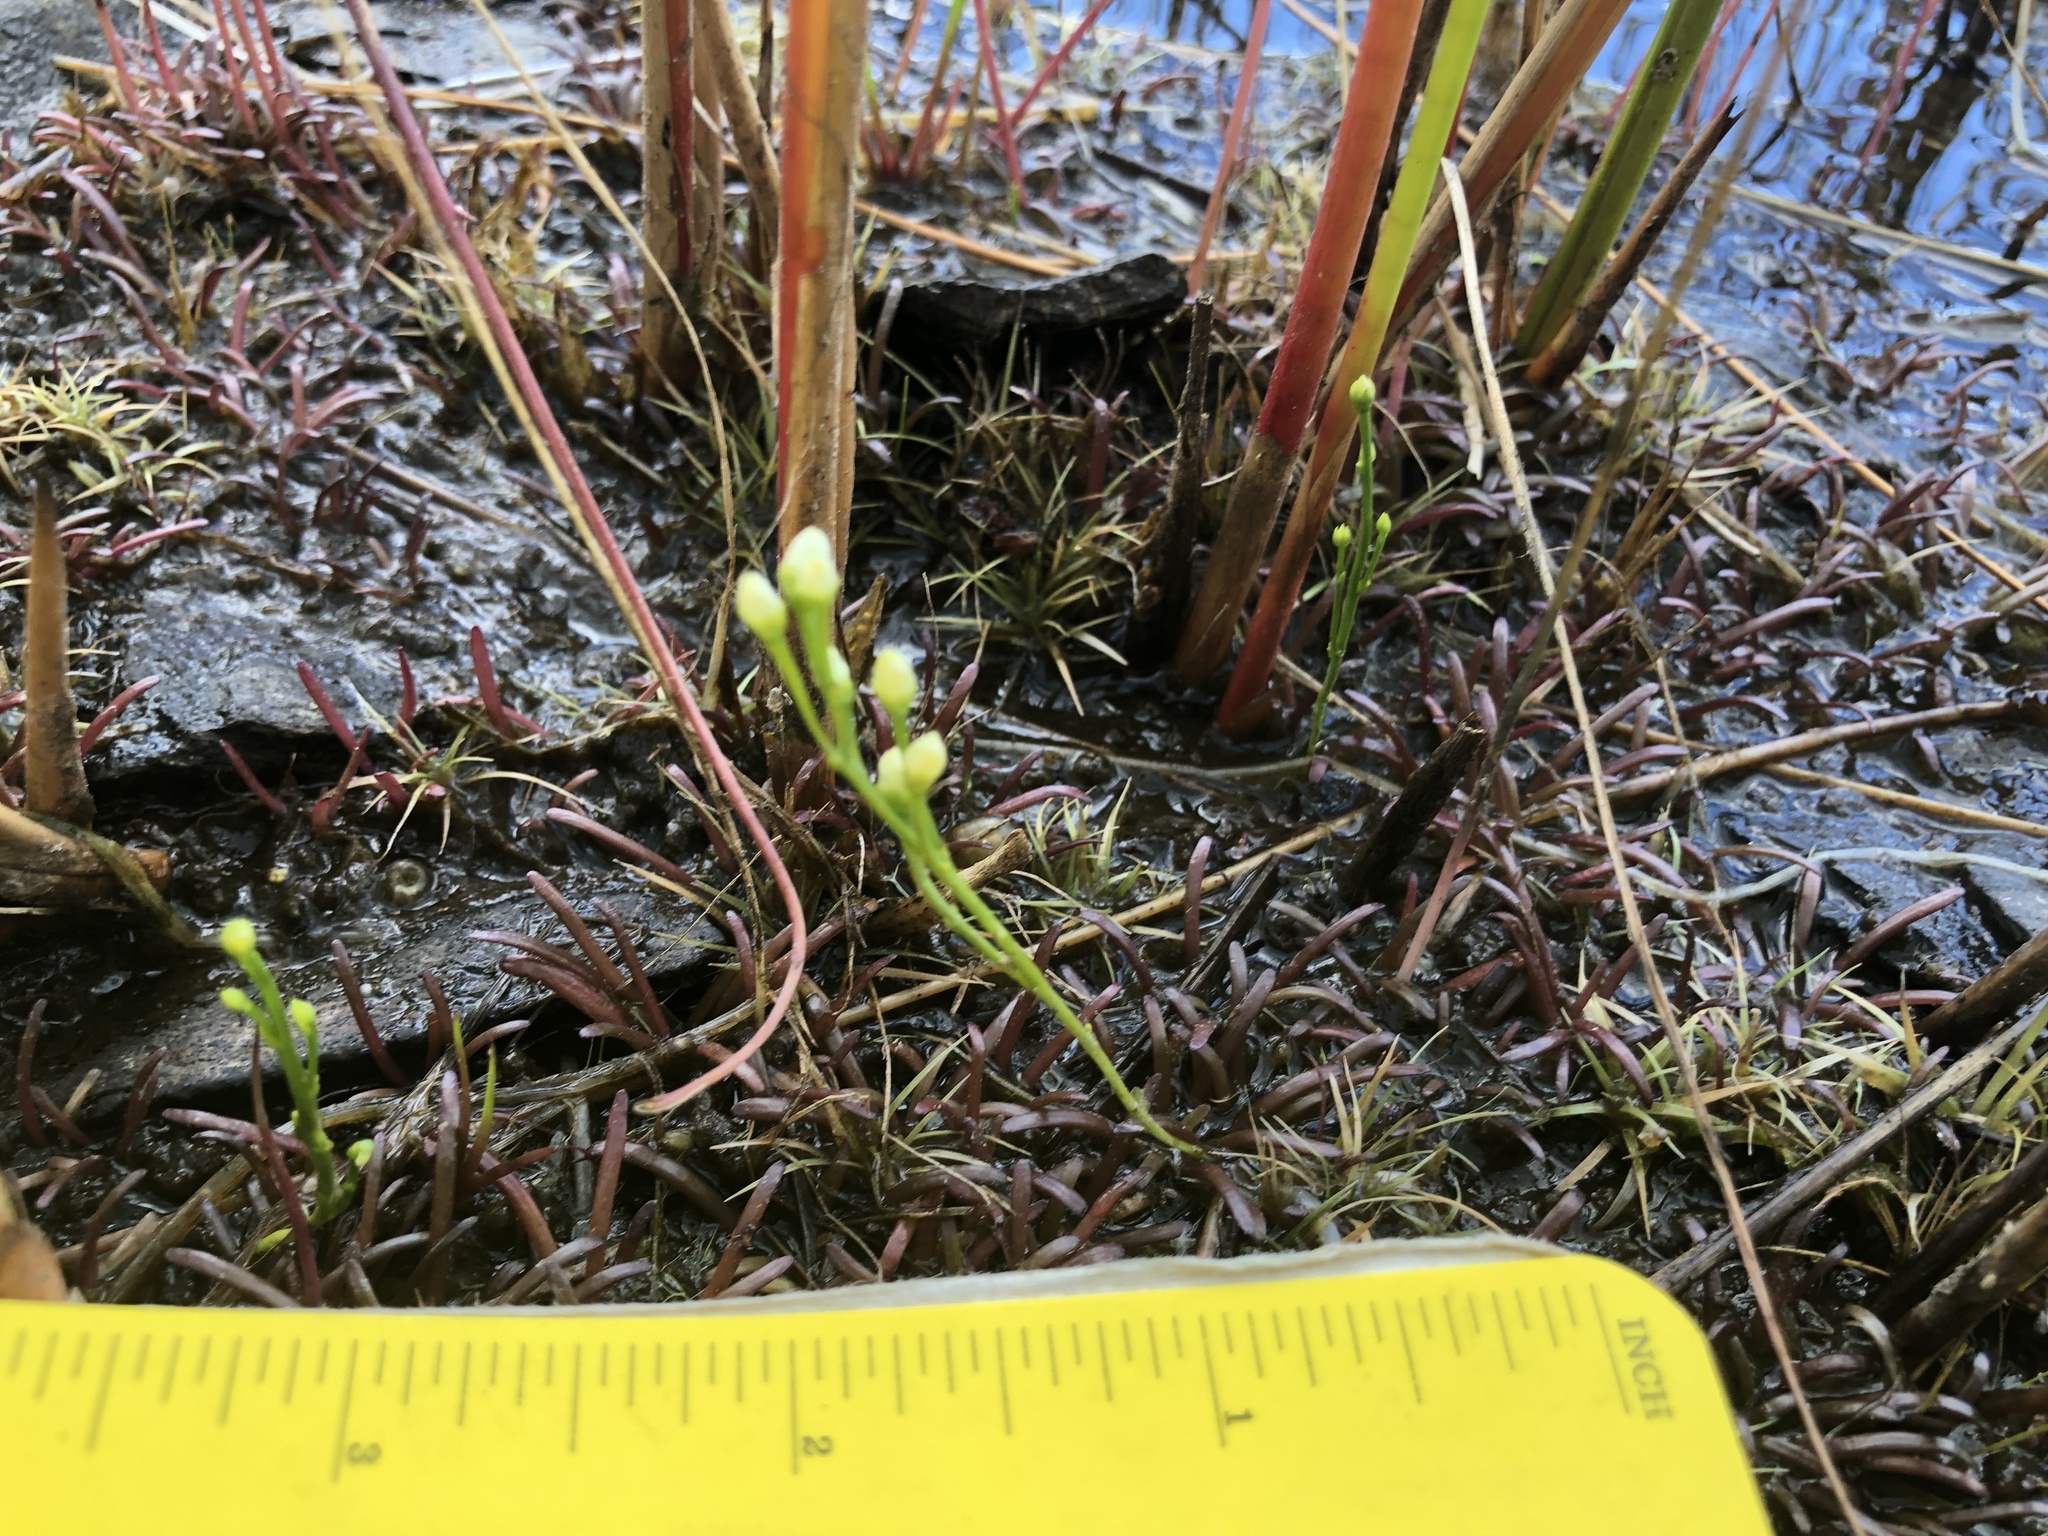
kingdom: Plantae
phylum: Tracheophyta
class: Magnoliopsida
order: Gentianales
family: Gentianaceae
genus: Bartonia
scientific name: Bartonia paniculata
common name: Branched bartonia
